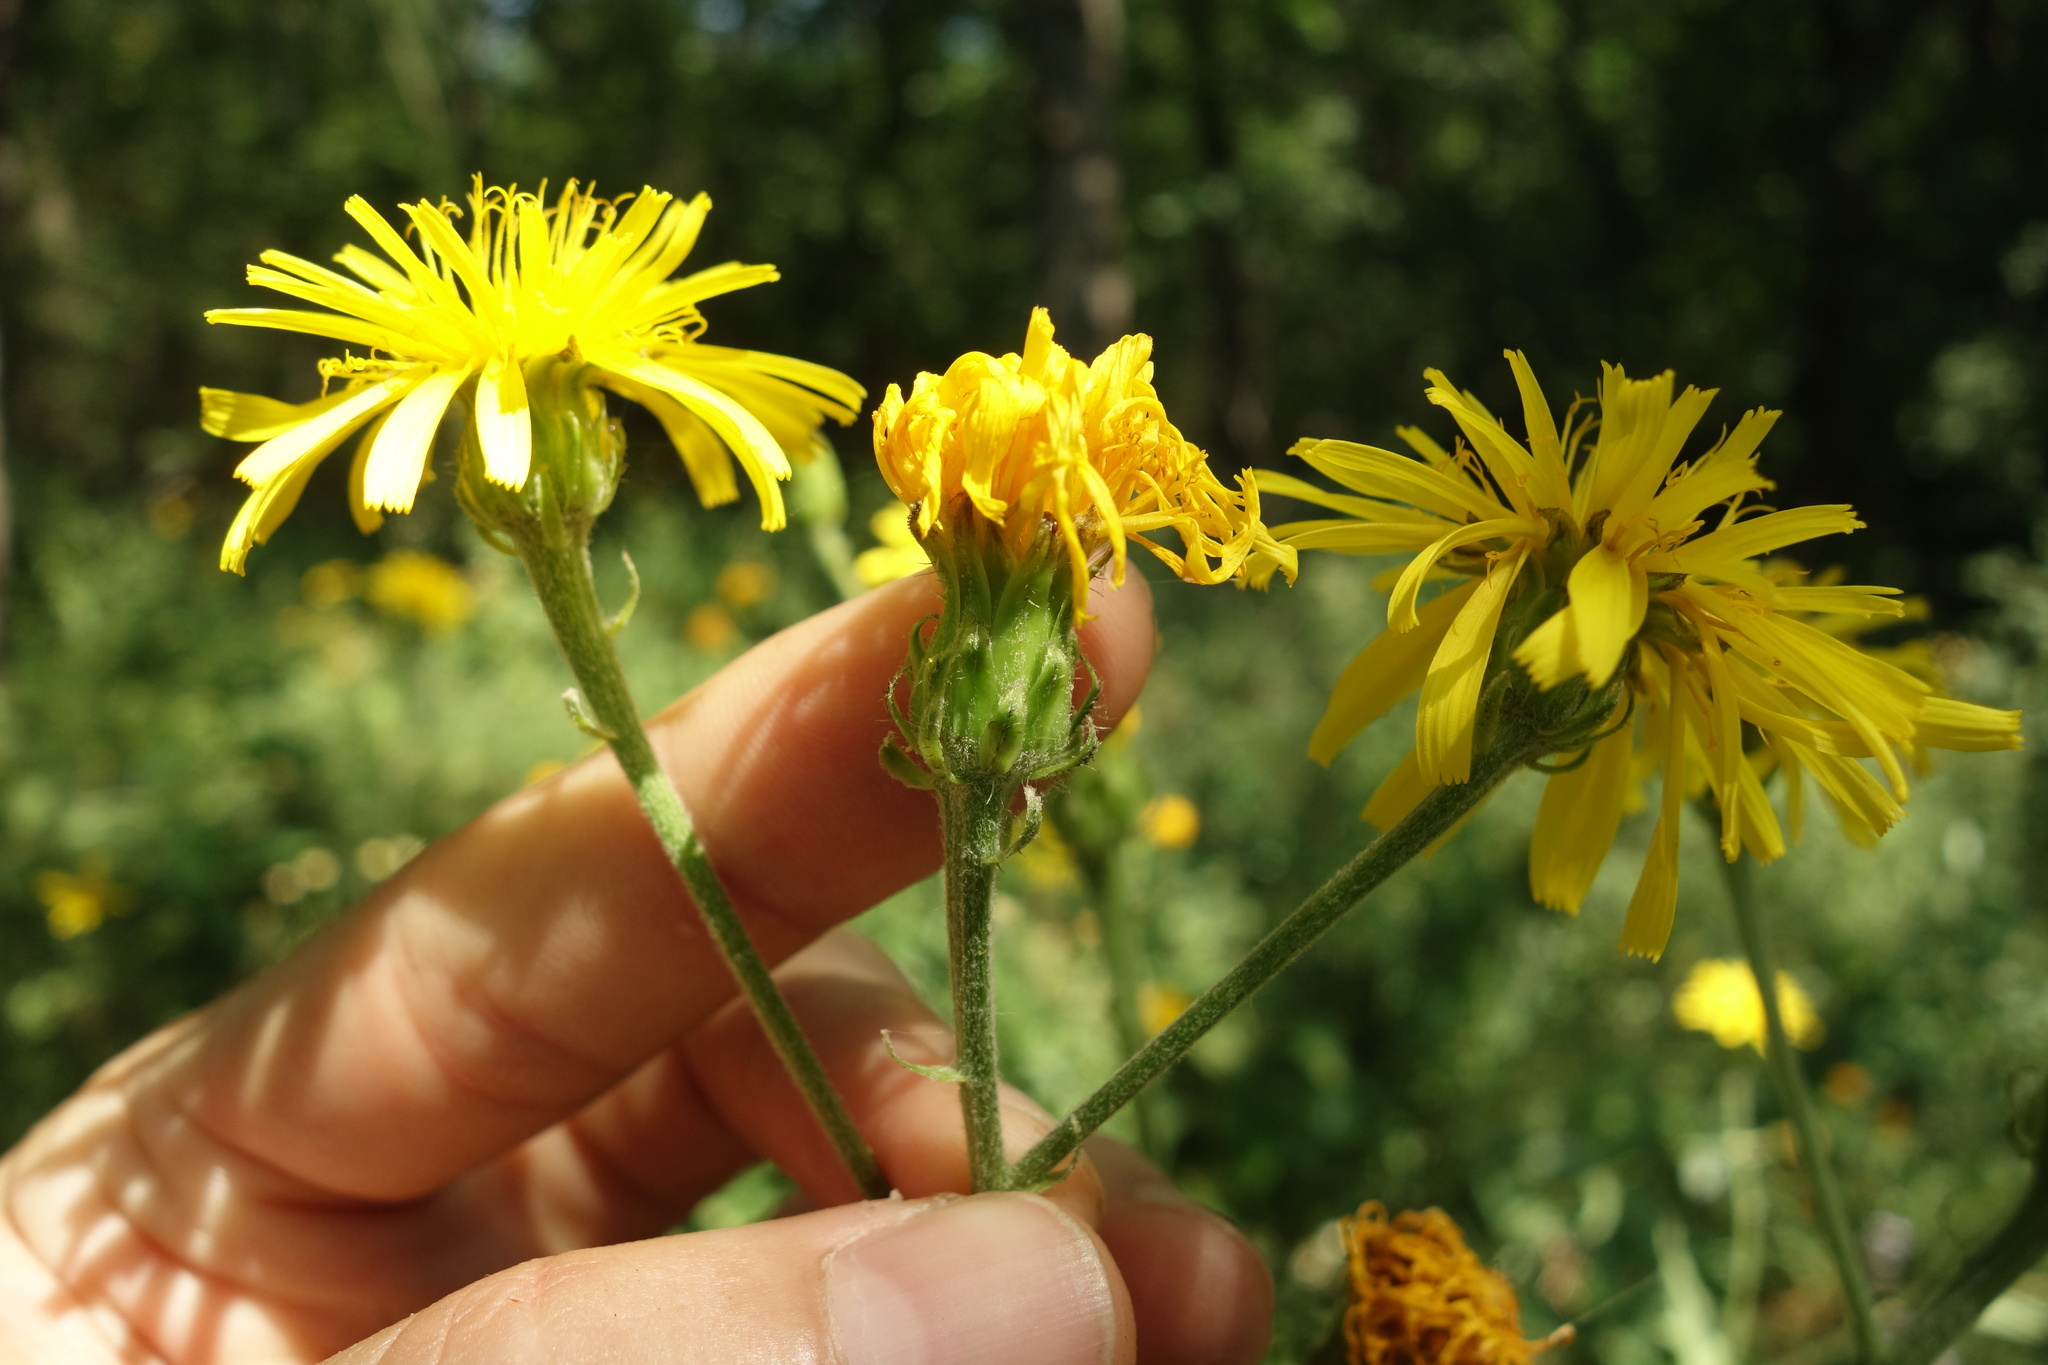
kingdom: Plantae
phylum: Tracheophyta
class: Magnoliopsida
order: Asterales
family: Asteraceae
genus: Crepis
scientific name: Crepis sibirica
